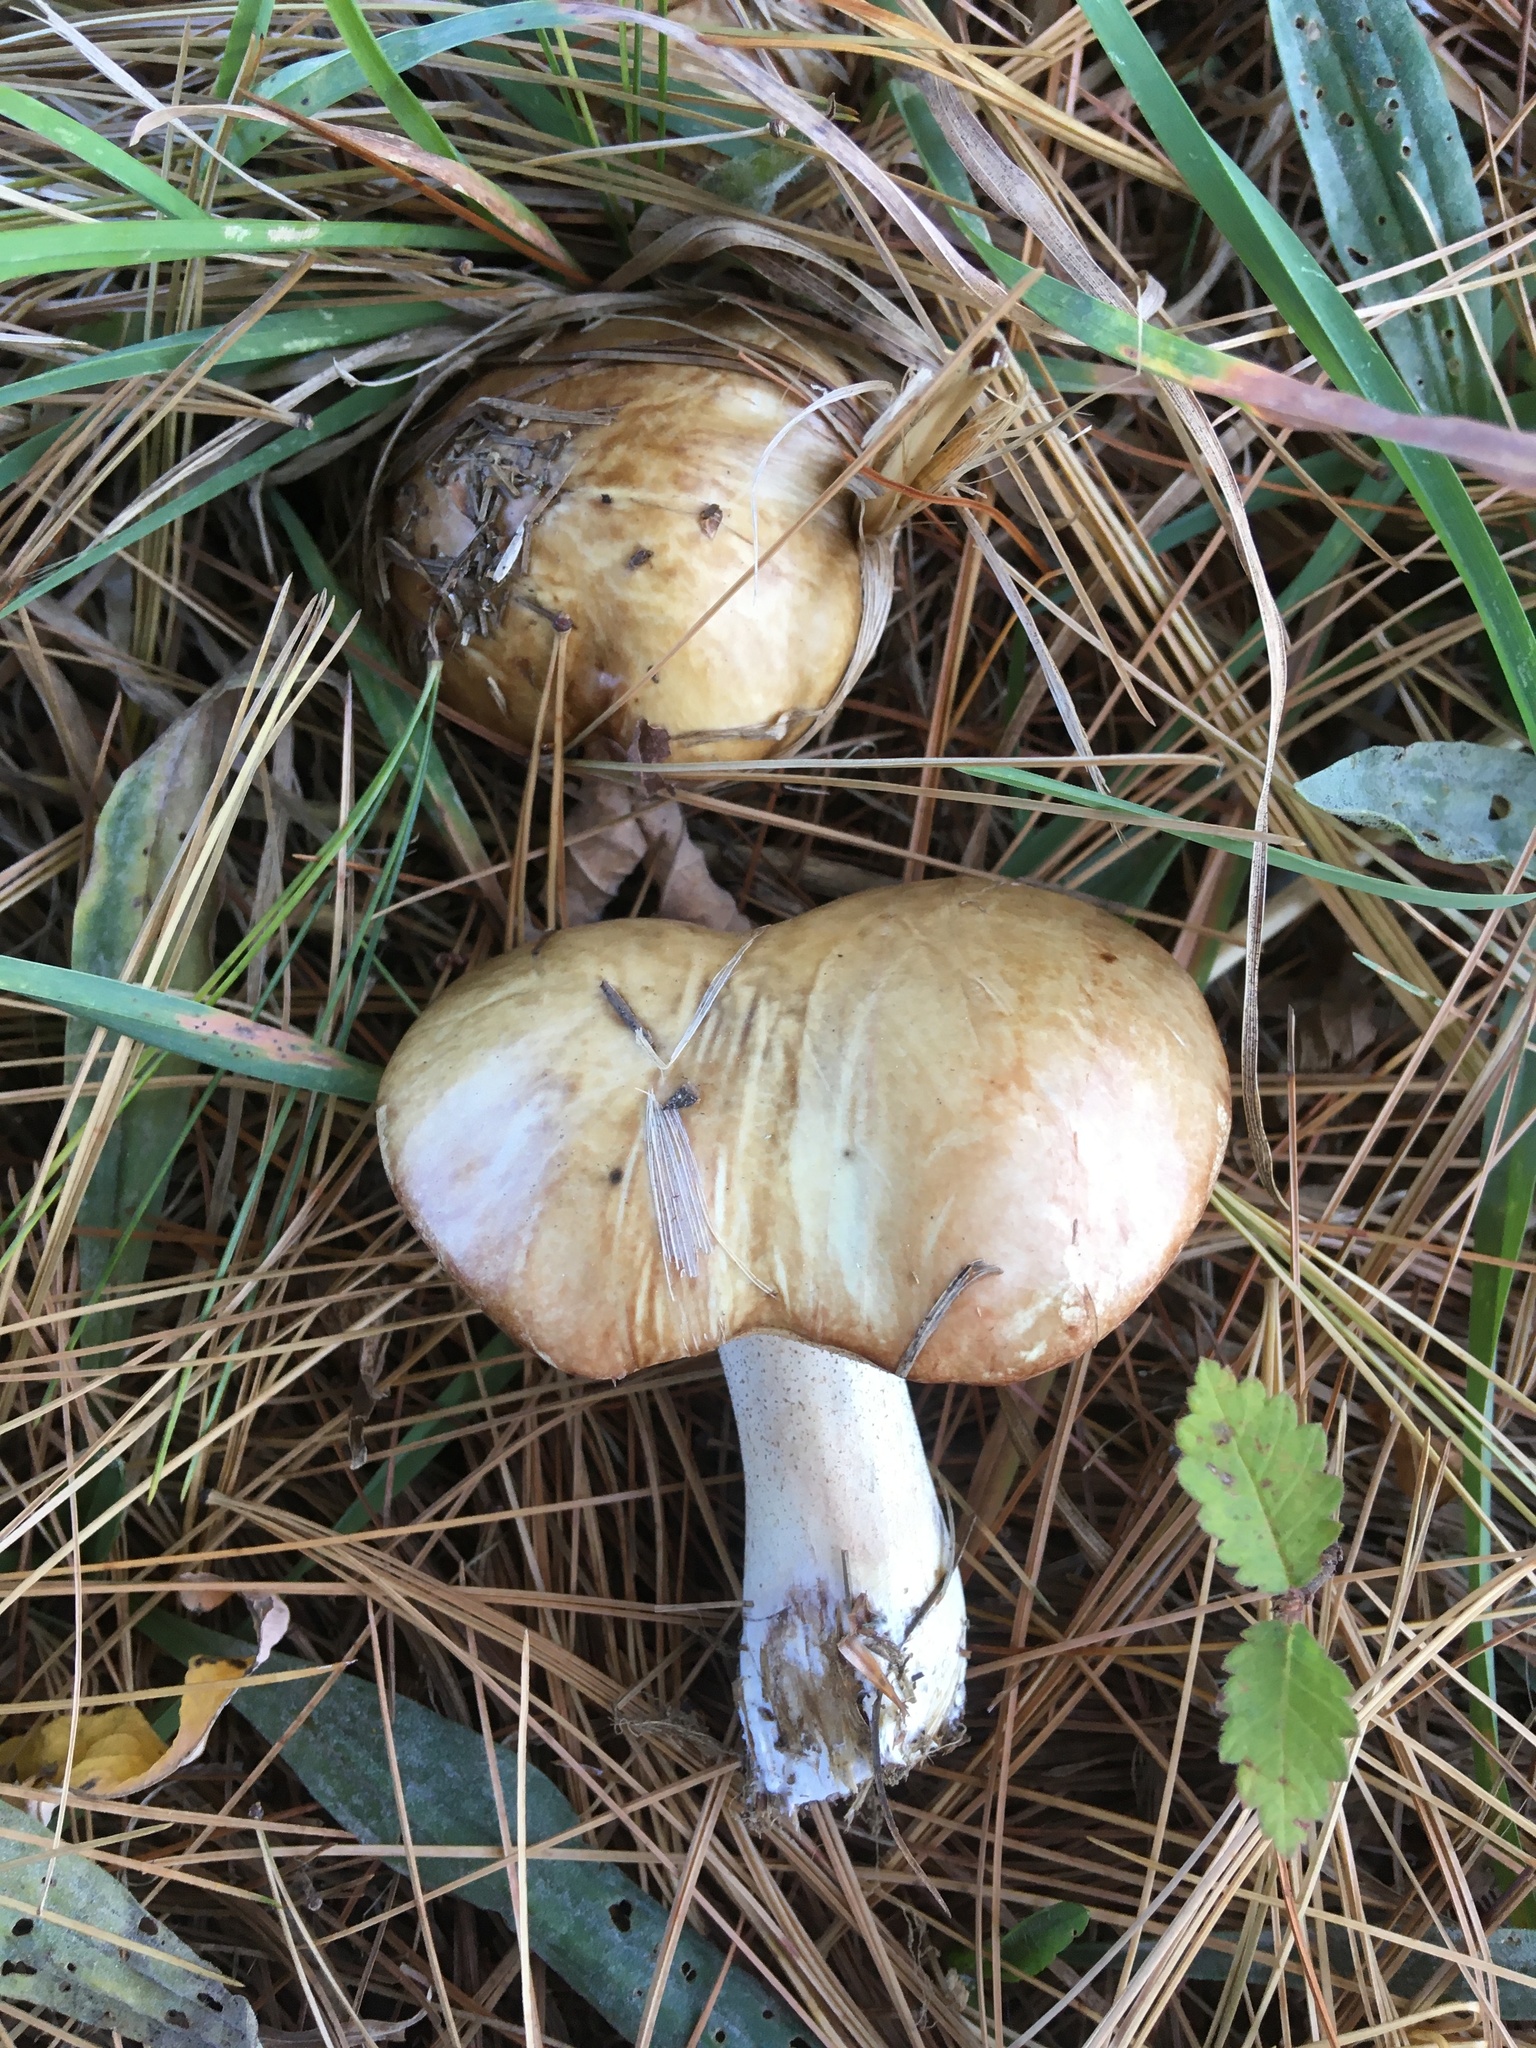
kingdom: Fungi
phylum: Basidiomycota
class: Agaricomycetes
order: Boletales
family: Suillaceae
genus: Fuscoboletinus
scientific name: Fuscoboletinus weaverae
